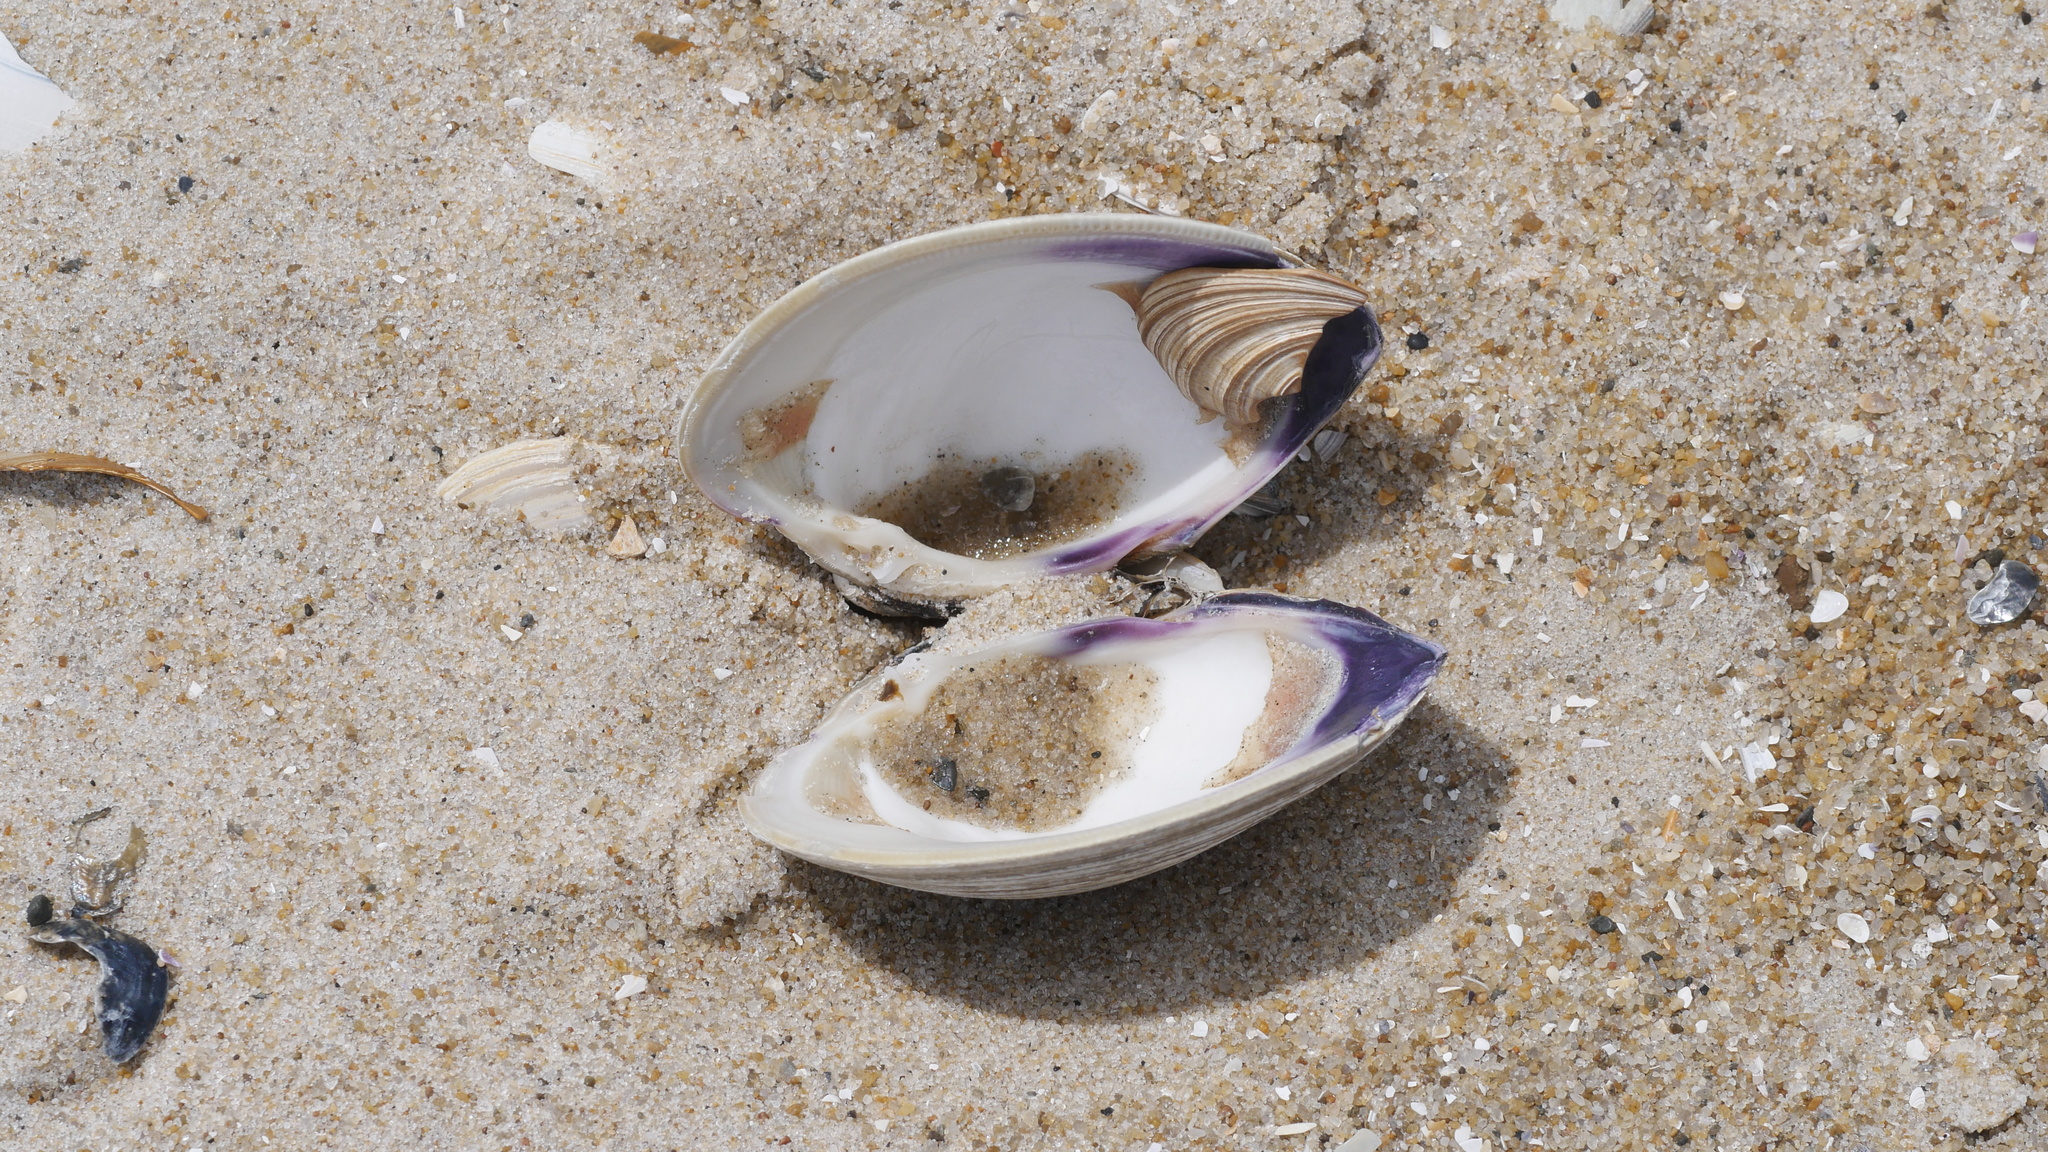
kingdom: Animalia
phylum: Mollusca
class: Bivalvia
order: Venerida
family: Veneridae
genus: Mercenaria
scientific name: Mercenaria mercenaria
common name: American hard-shelled clam
